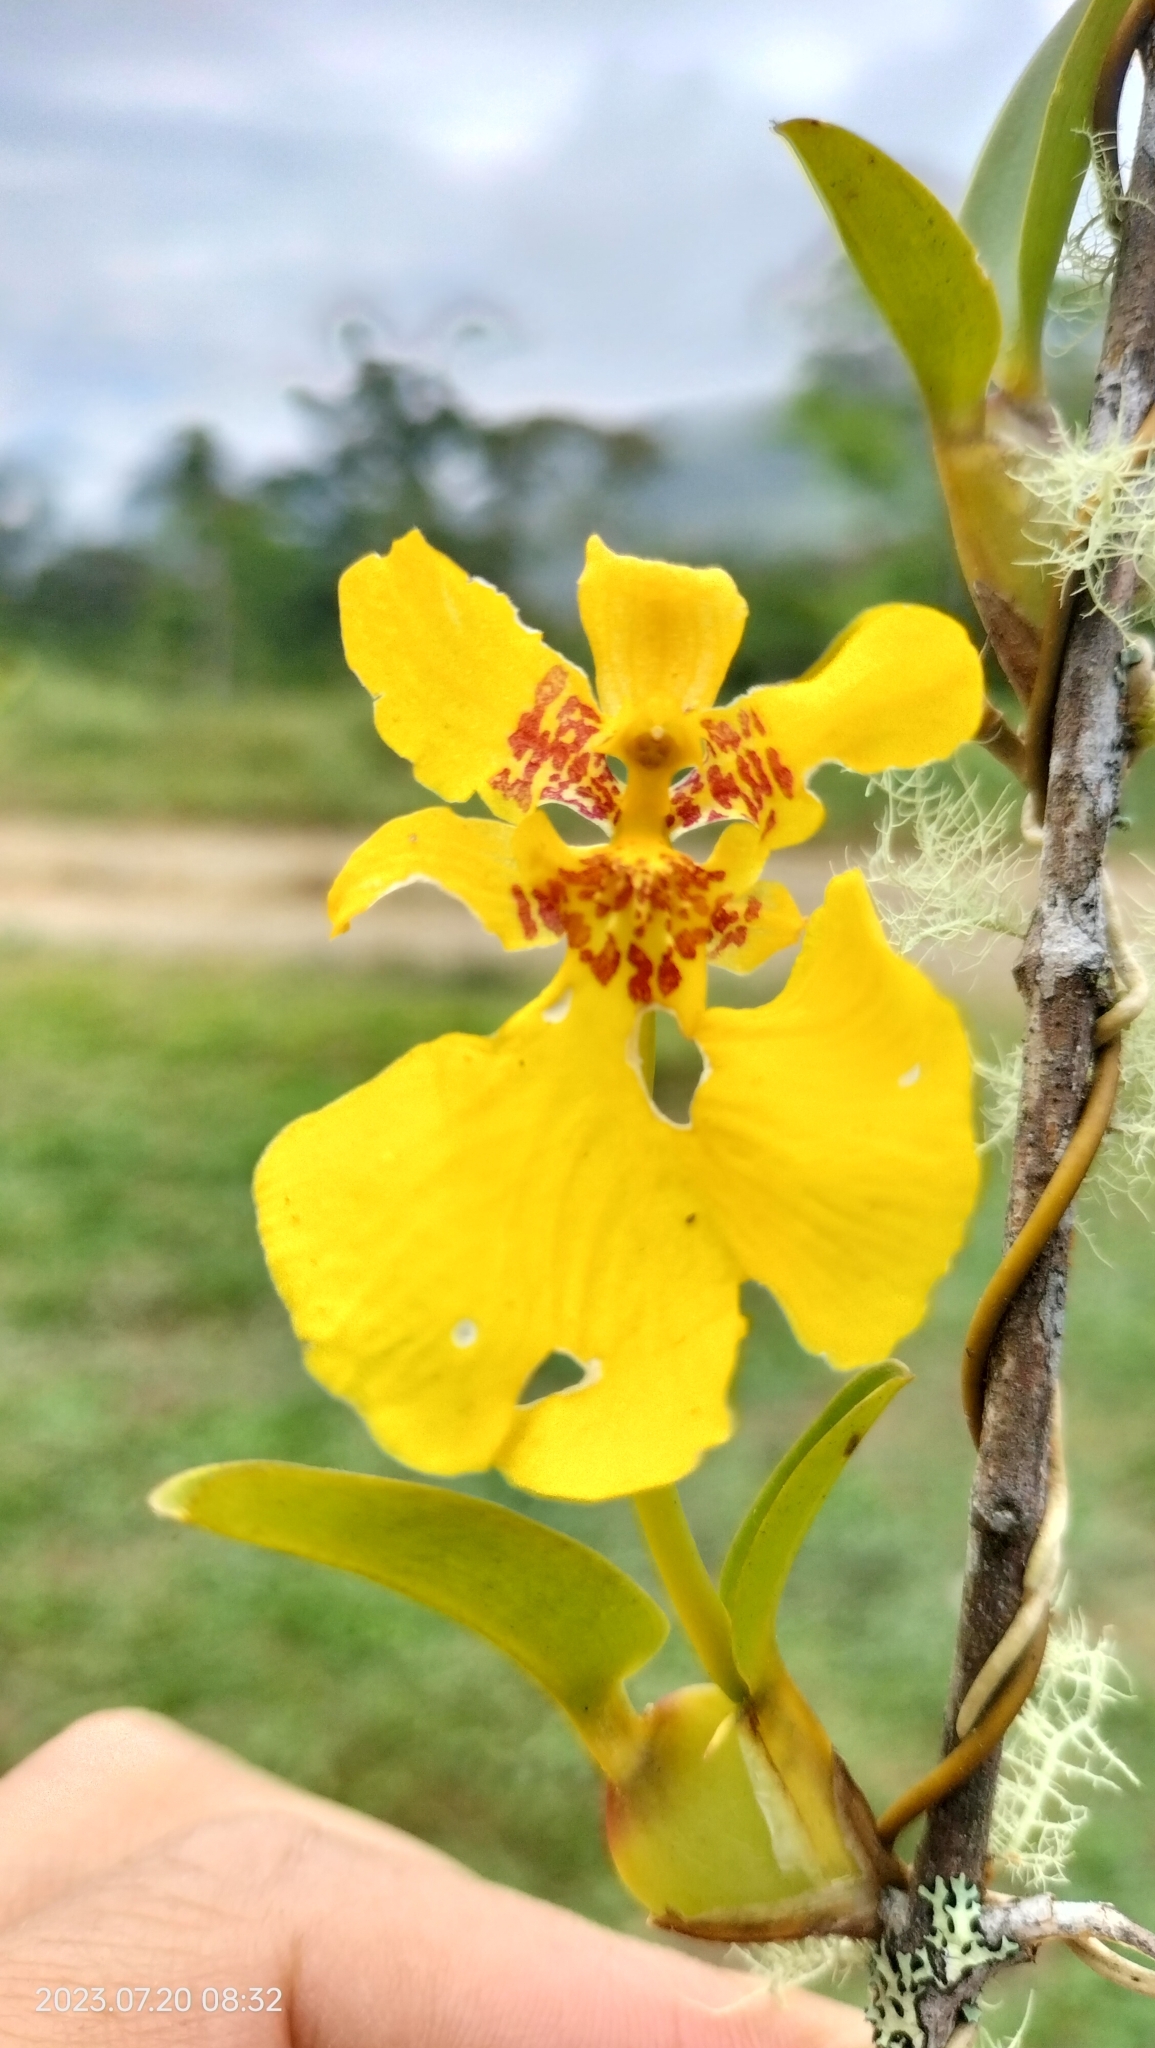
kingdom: Plantae
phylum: Tracheophyta
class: Liliopsida
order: Asparagales
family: Orchidaceae
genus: Otoglossum
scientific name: Otoglossum scansor
